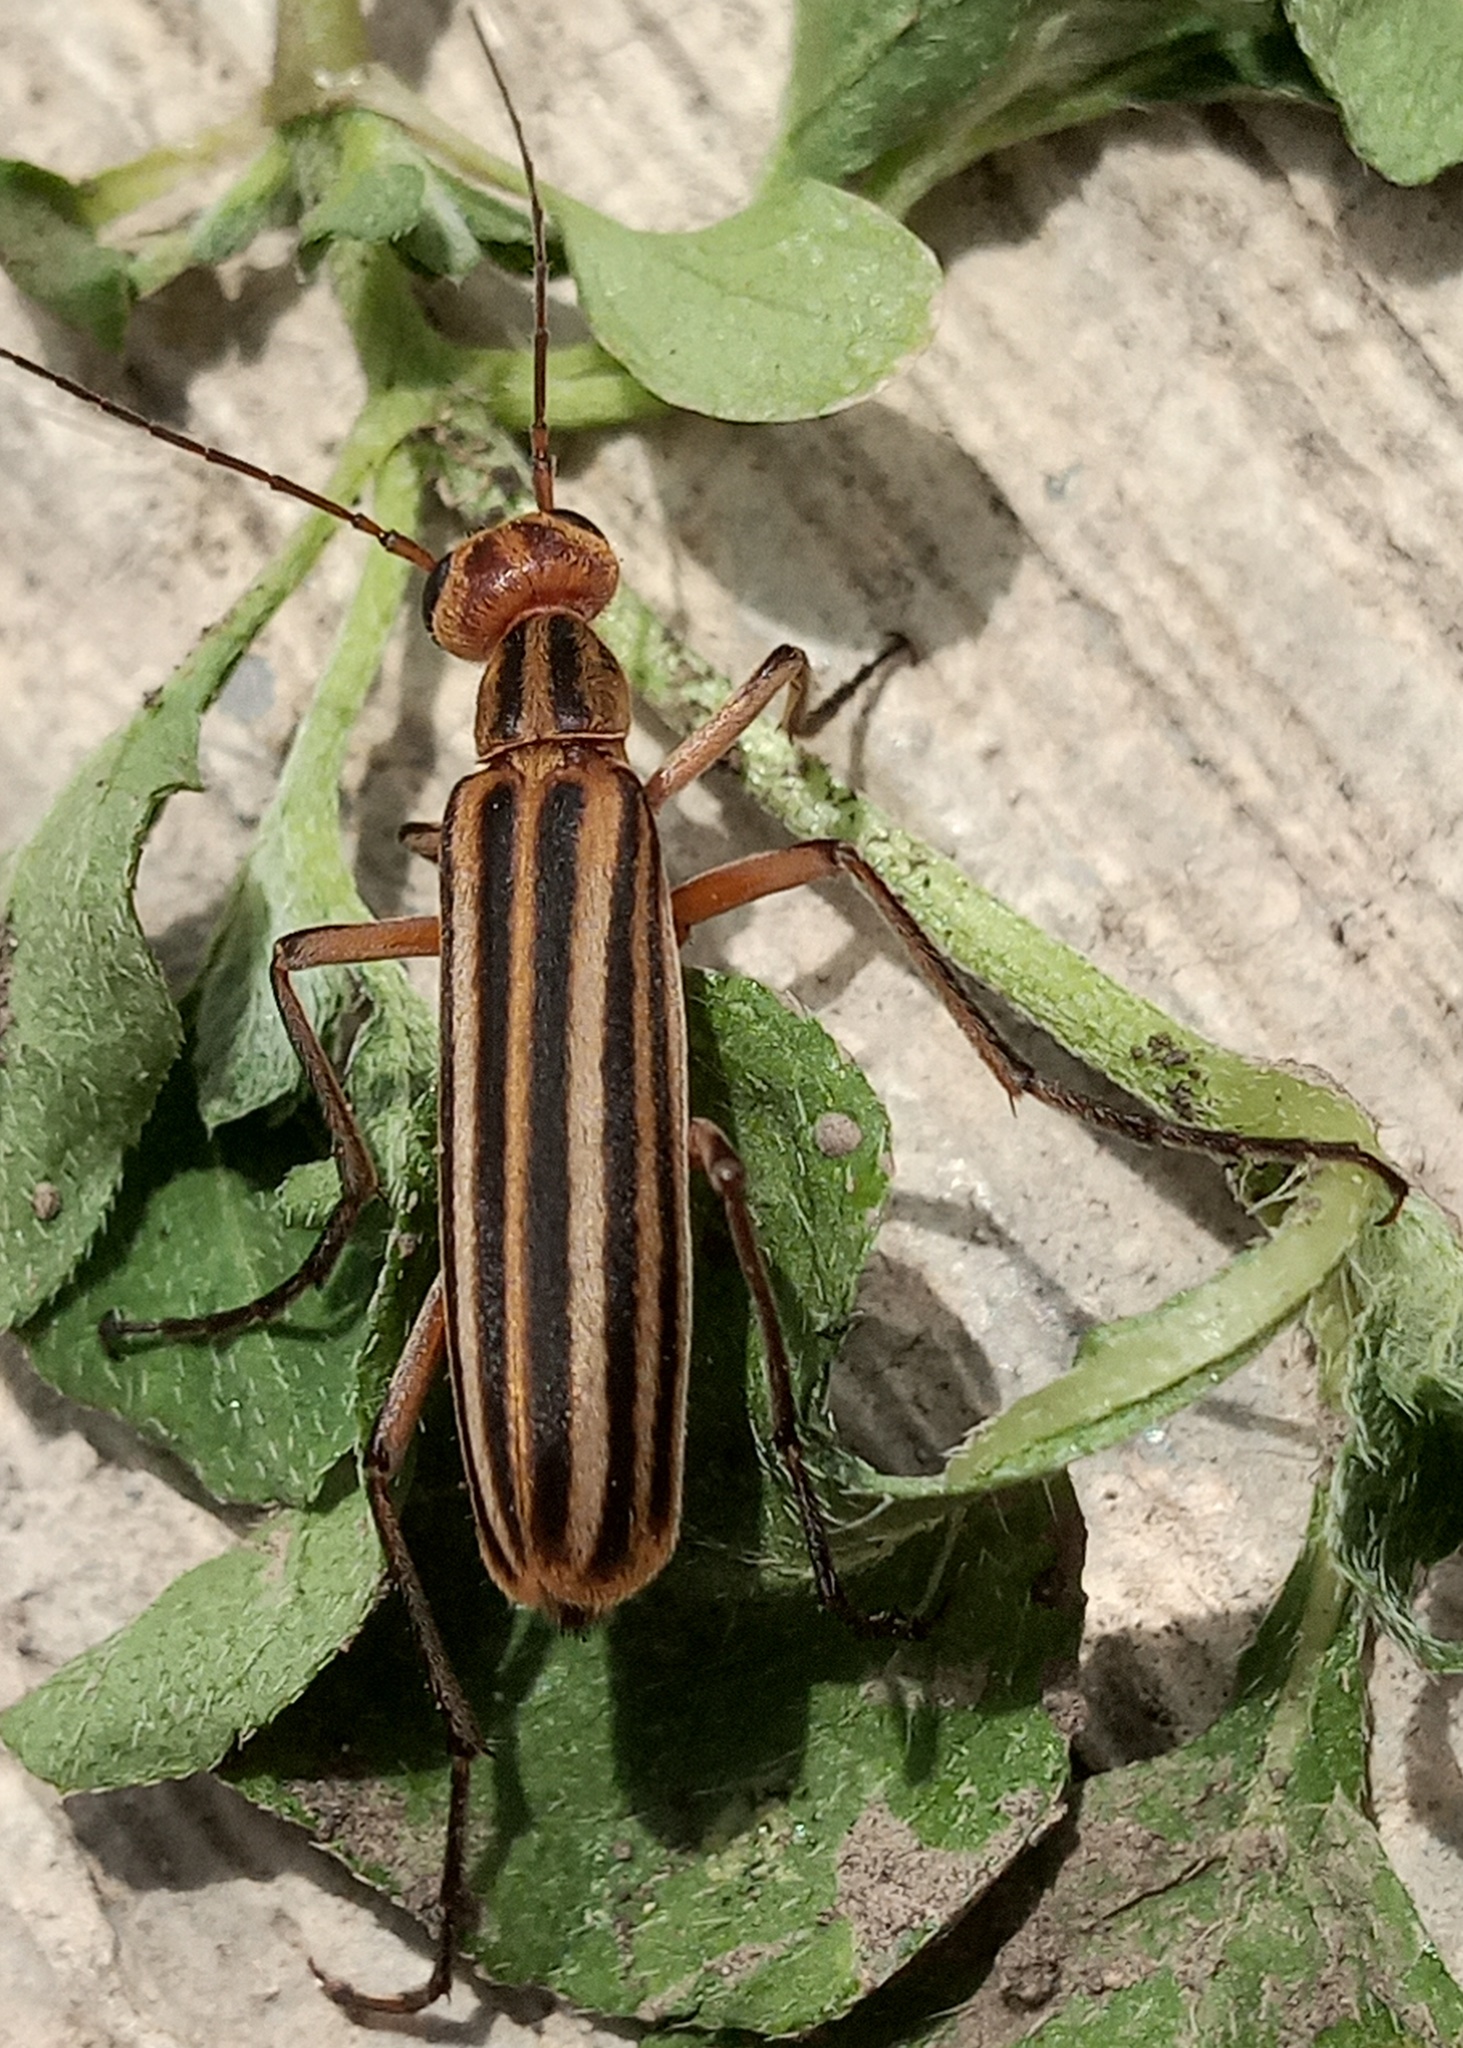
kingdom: Animalia
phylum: Arthropoda
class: Insecta
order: Coleoptera
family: Meloidae
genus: Epicauta
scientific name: Epicauta temexa
